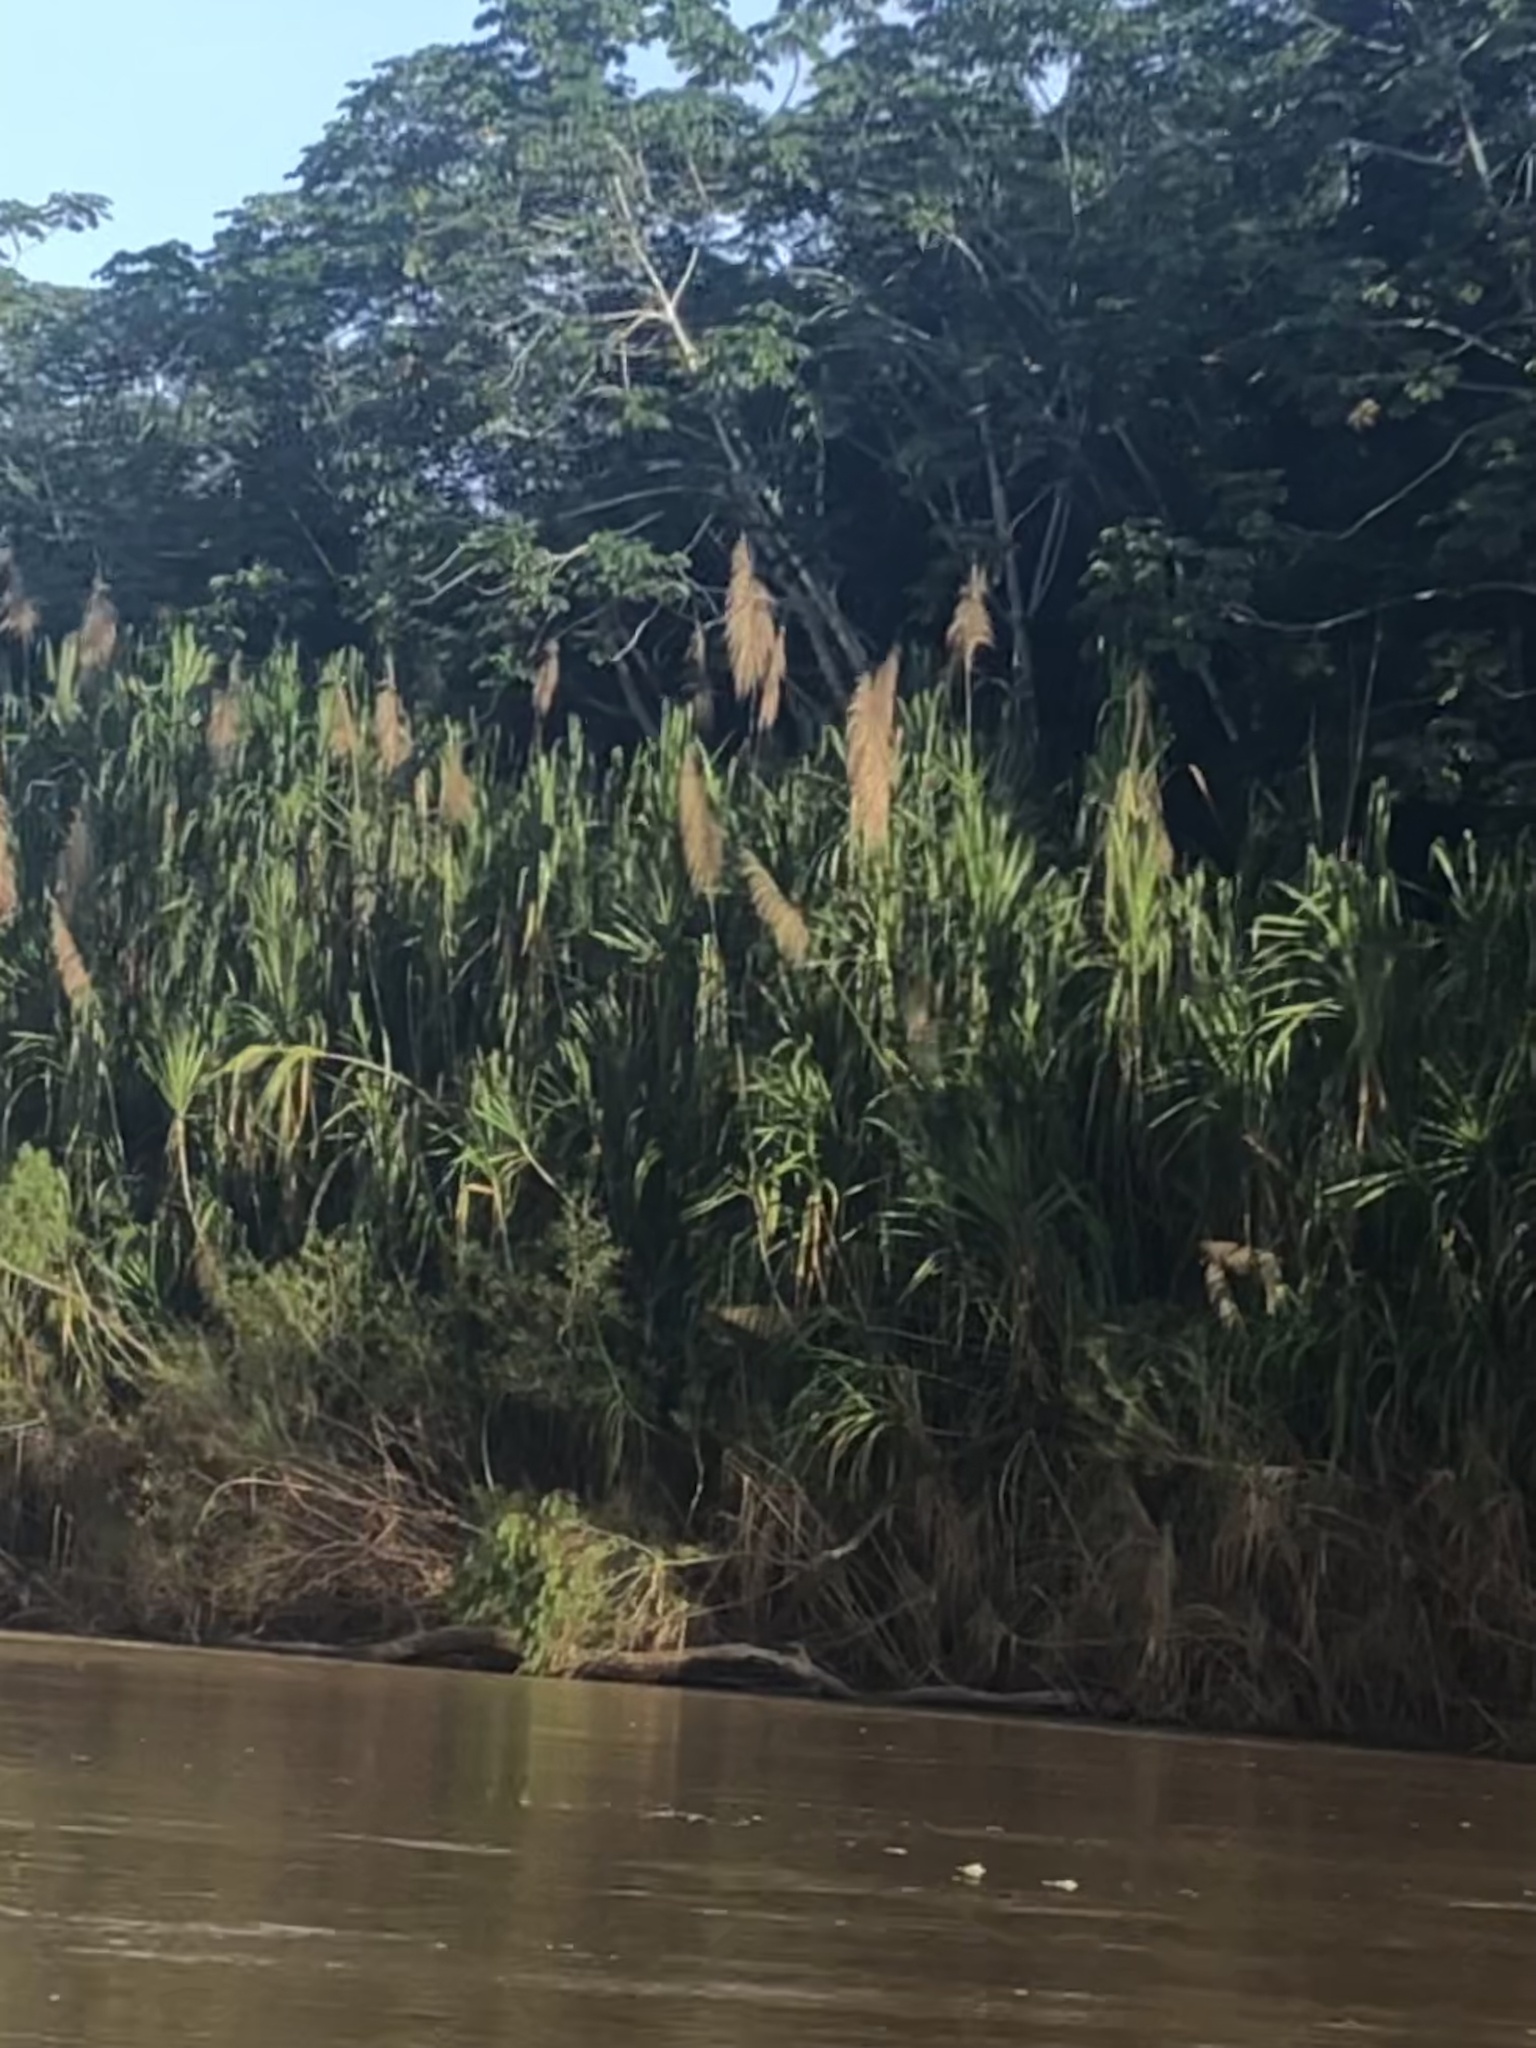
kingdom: Plantae
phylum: Tracheophyta
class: Liliopsida
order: Poales
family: Poaceae
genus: Gynerium
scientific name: Gynerium sagittatum
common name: Wild cane
